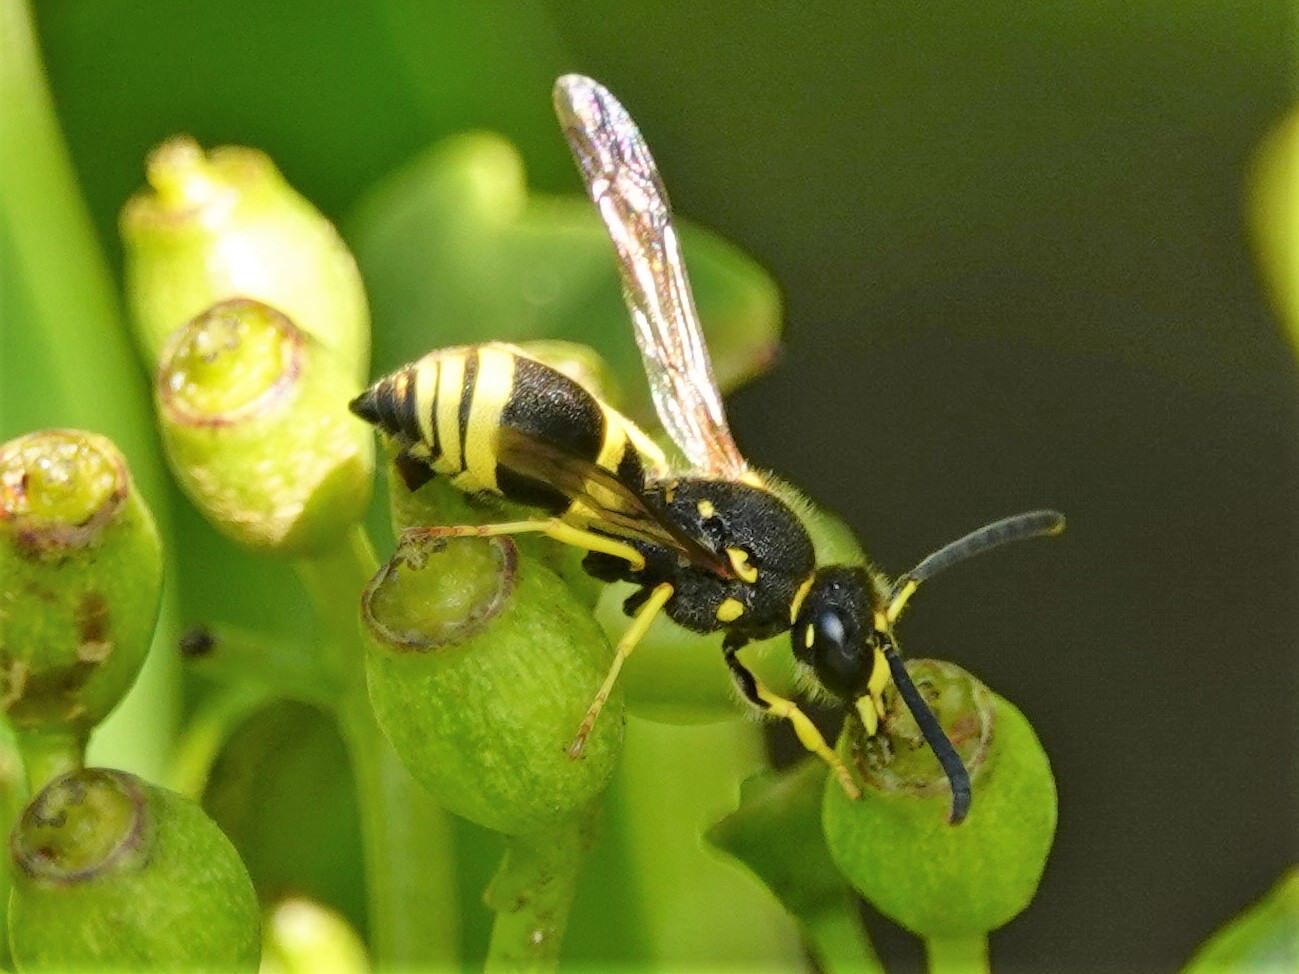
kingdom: Animalia
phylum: Arthropoda
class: Insecta
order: Hymenoptera
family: Vespidae
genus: Ancistrocerus
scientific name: Ancistrocerus gazella
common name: European tube wasp
